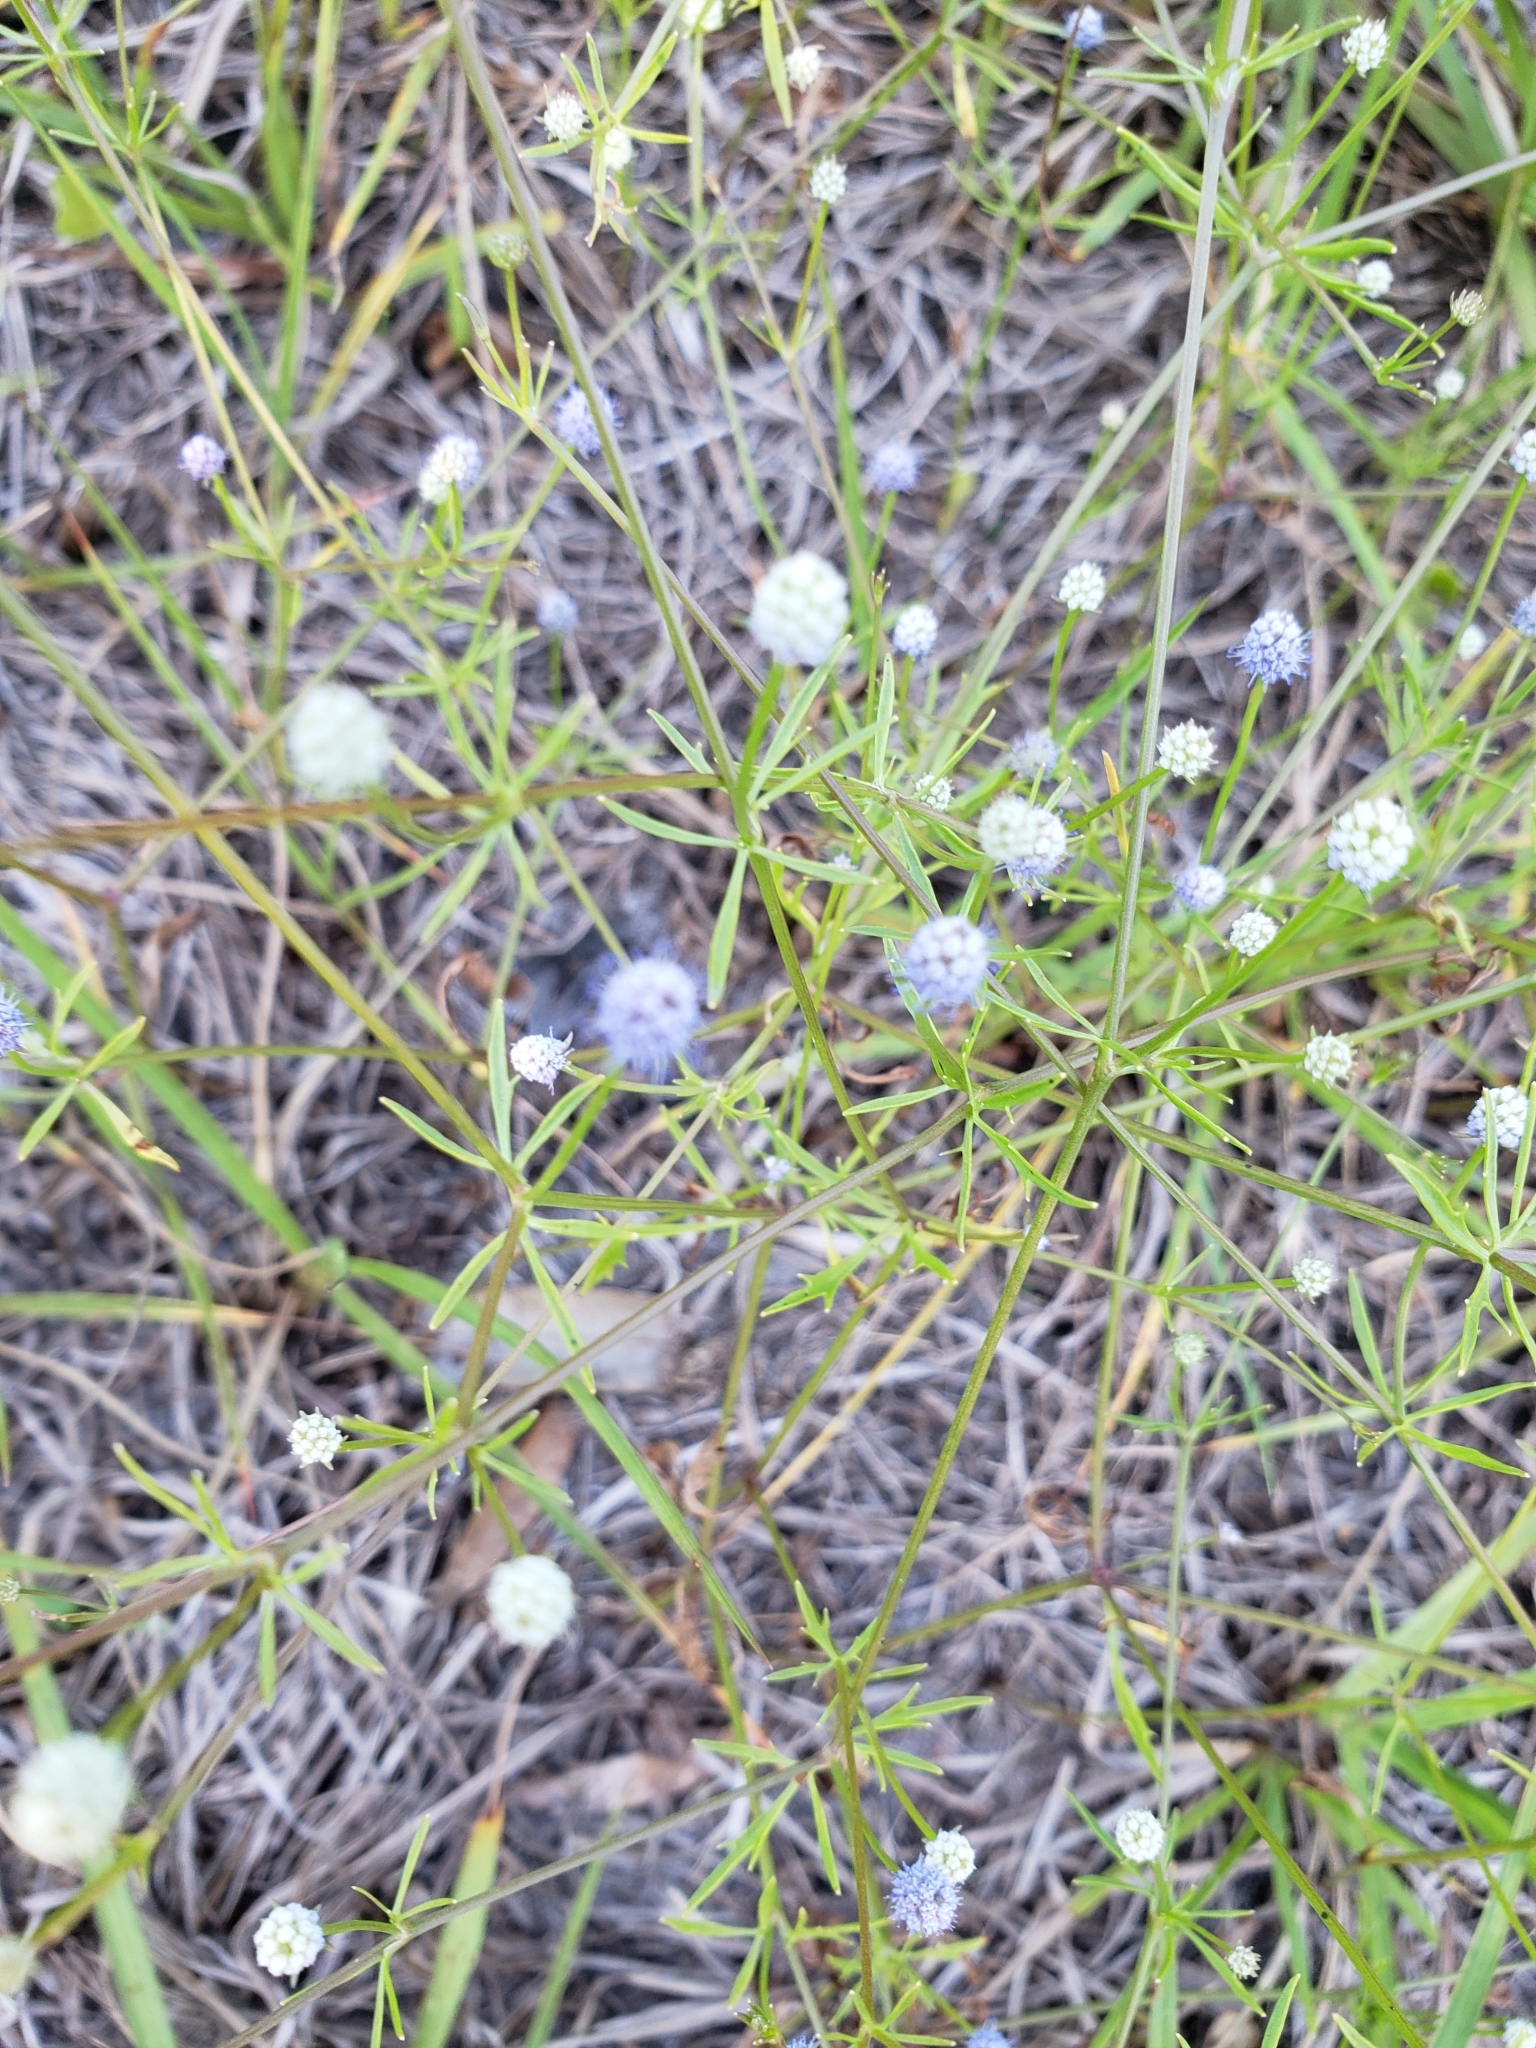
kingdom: Plantae
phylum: Tracheophyta
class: Magnoliopsida
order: Apiales
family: Apiaceae
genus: Eryngium
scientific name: Eryngium baldwinii
